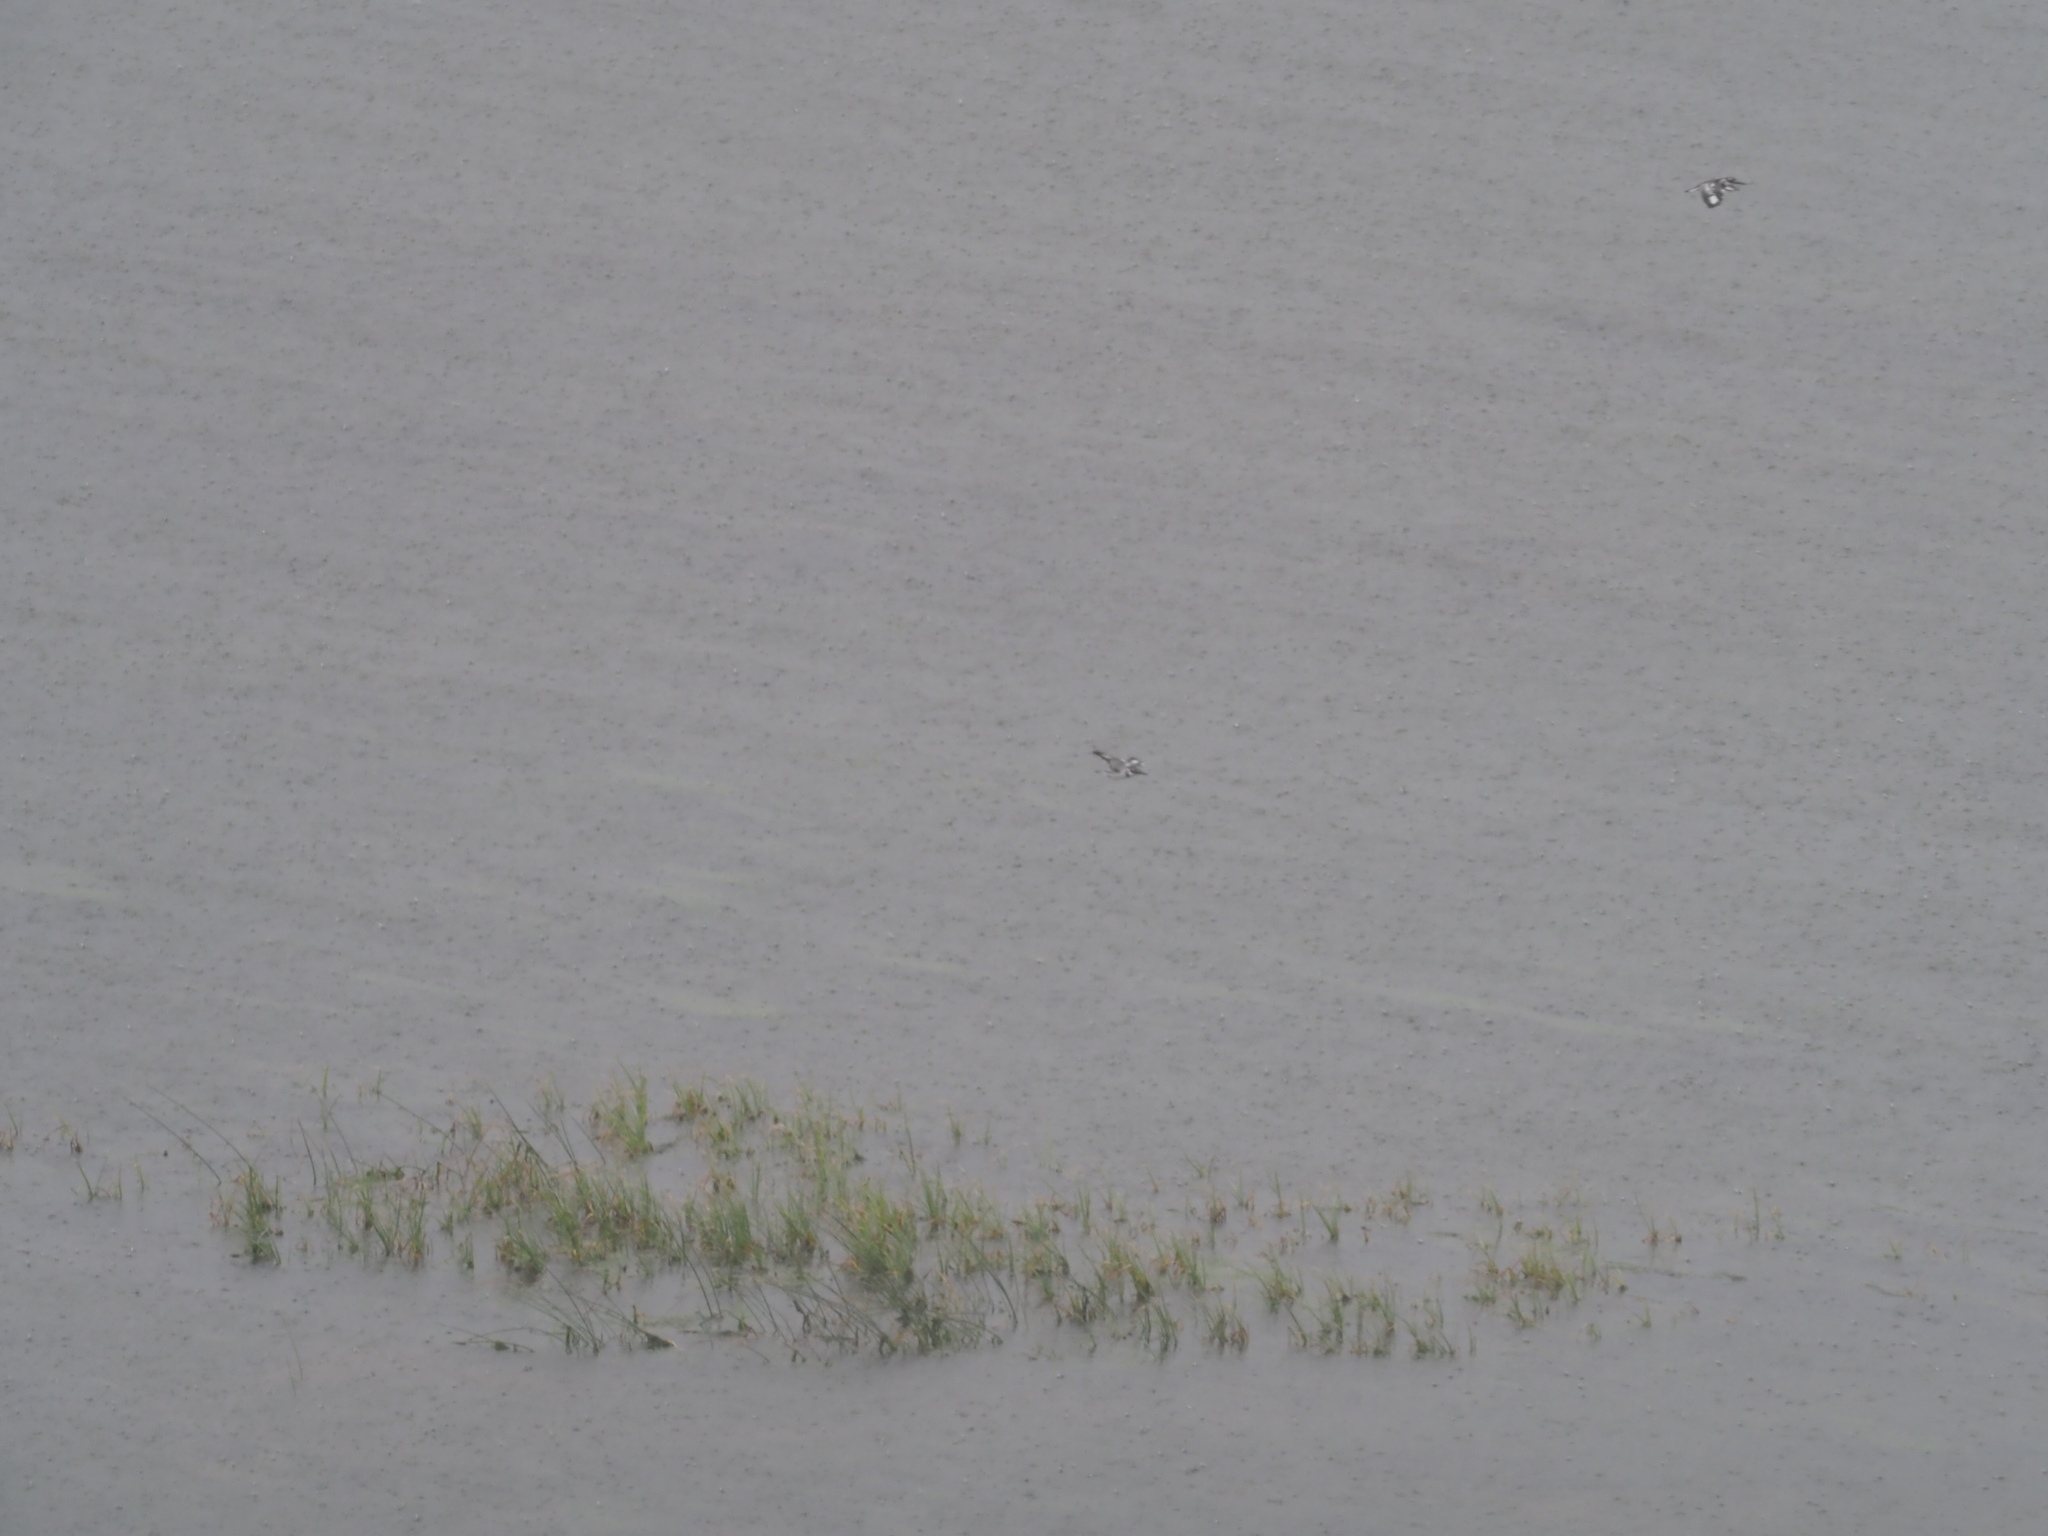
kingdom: Animalia
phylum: Chordata
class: Aves
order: Coraciiformes
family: Alcedinidae
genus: Ceryle
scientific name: Ceryle rudis
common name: Pied kingfisher
